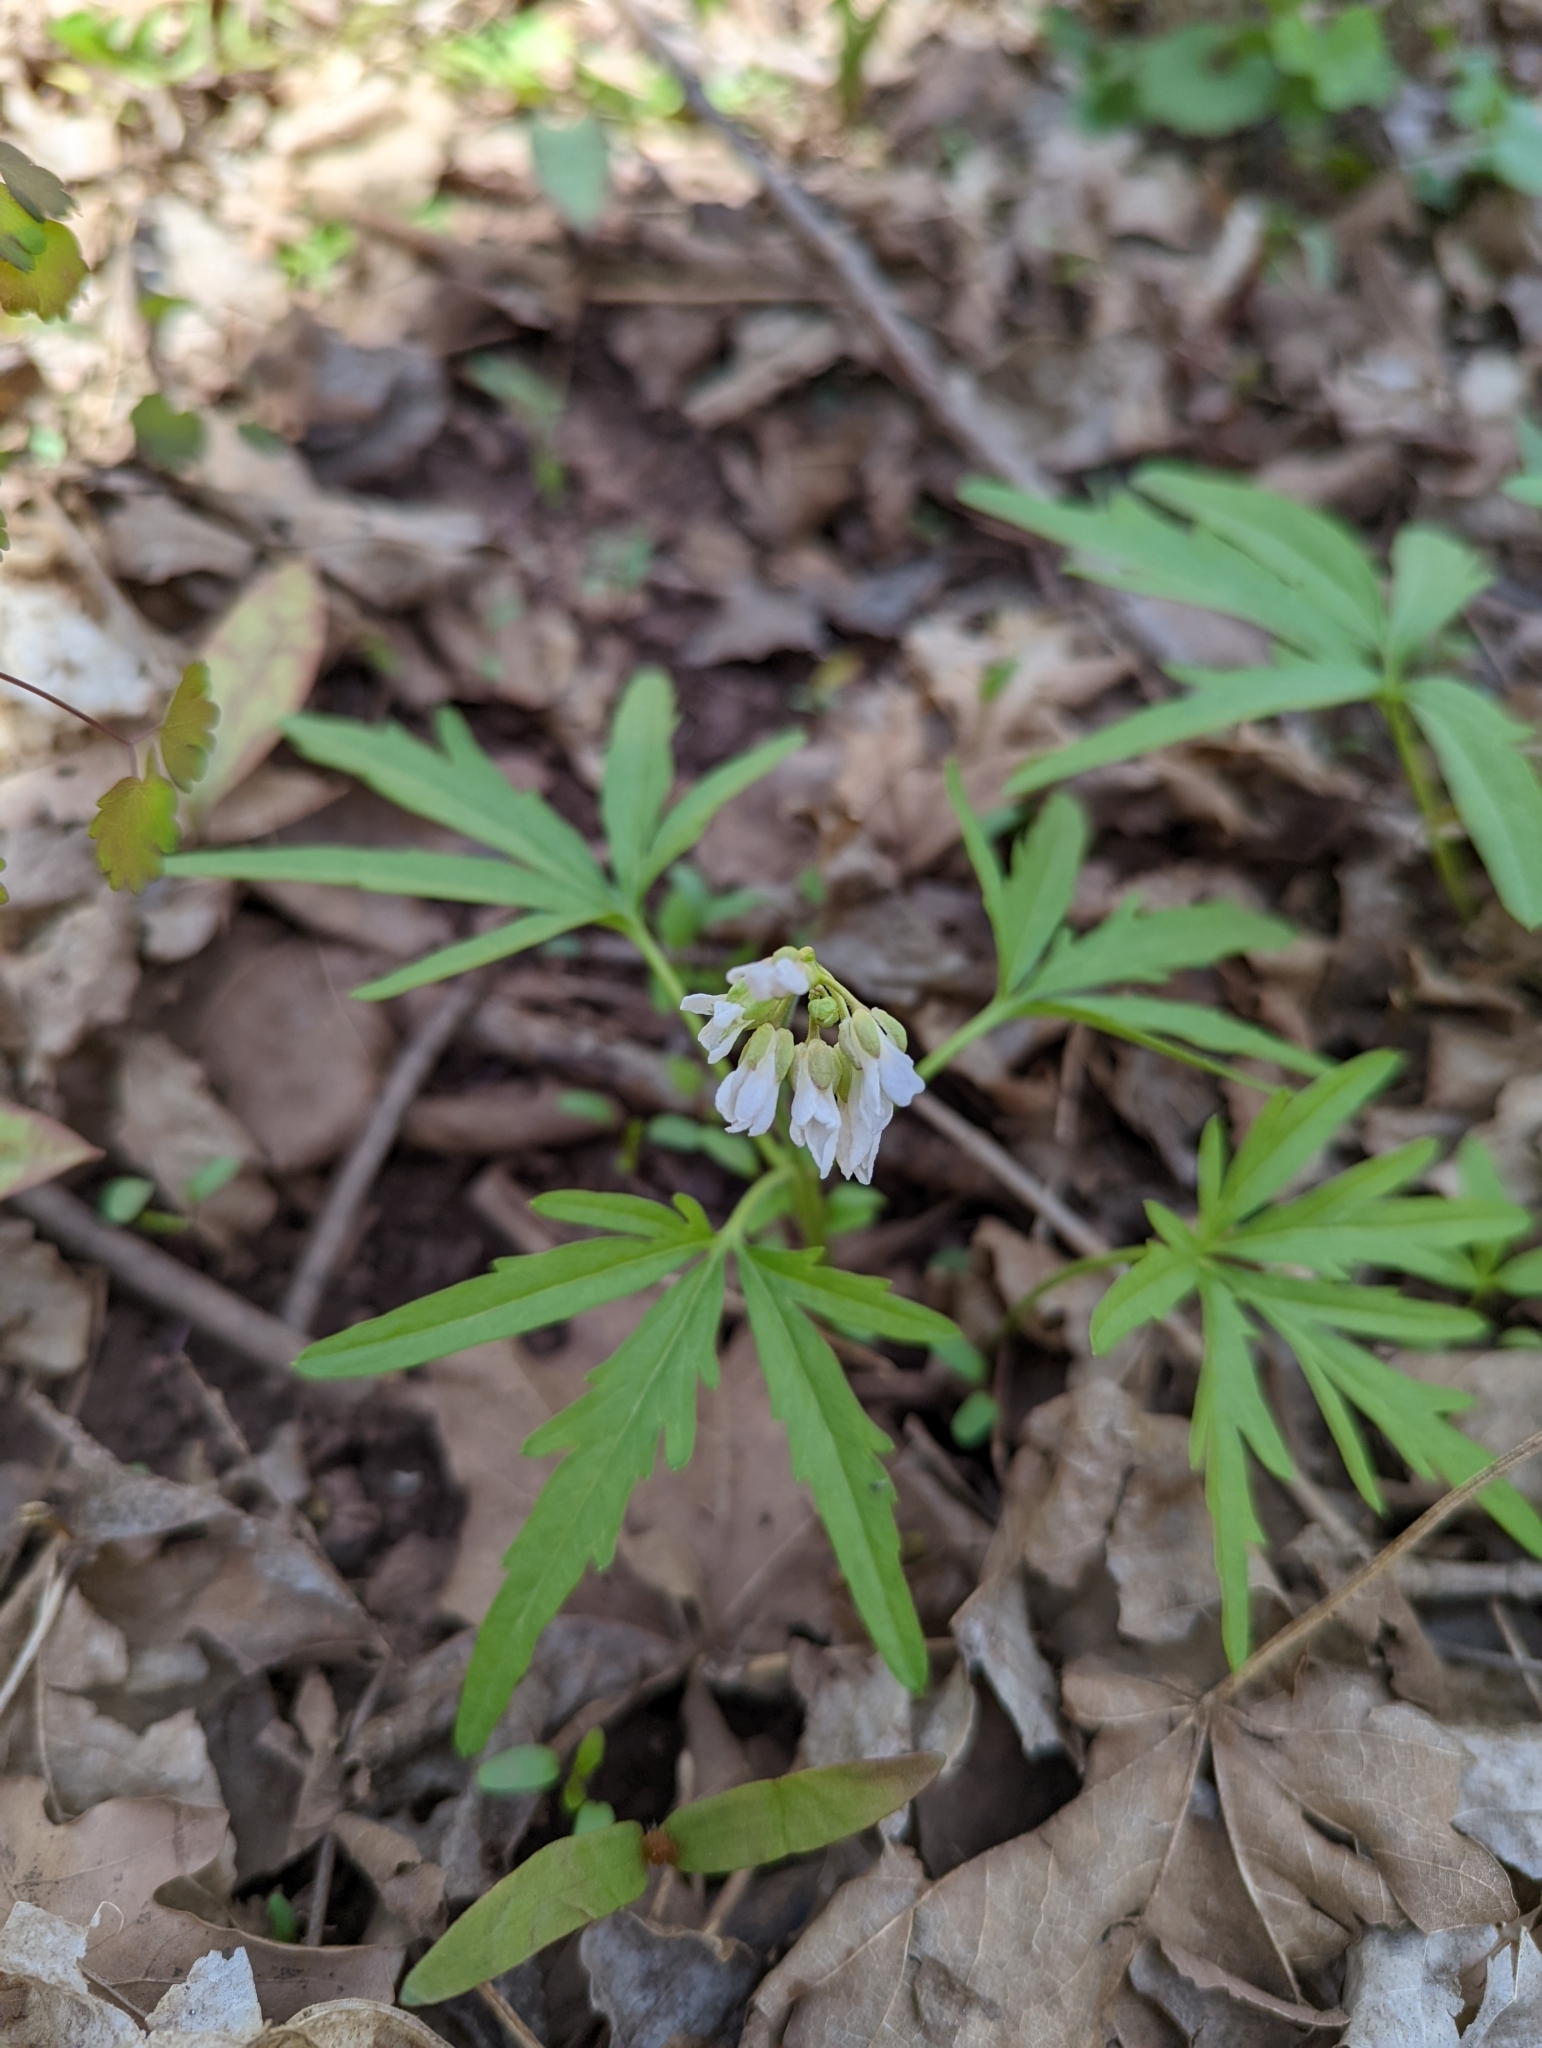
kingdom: Plantae
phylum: Tracheophyta
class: Magnoliopsida
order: Brassicales
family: Brassicaceae
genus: Cardamine
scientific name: Cardamine concatenata
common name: Cut-leaf toothcup
